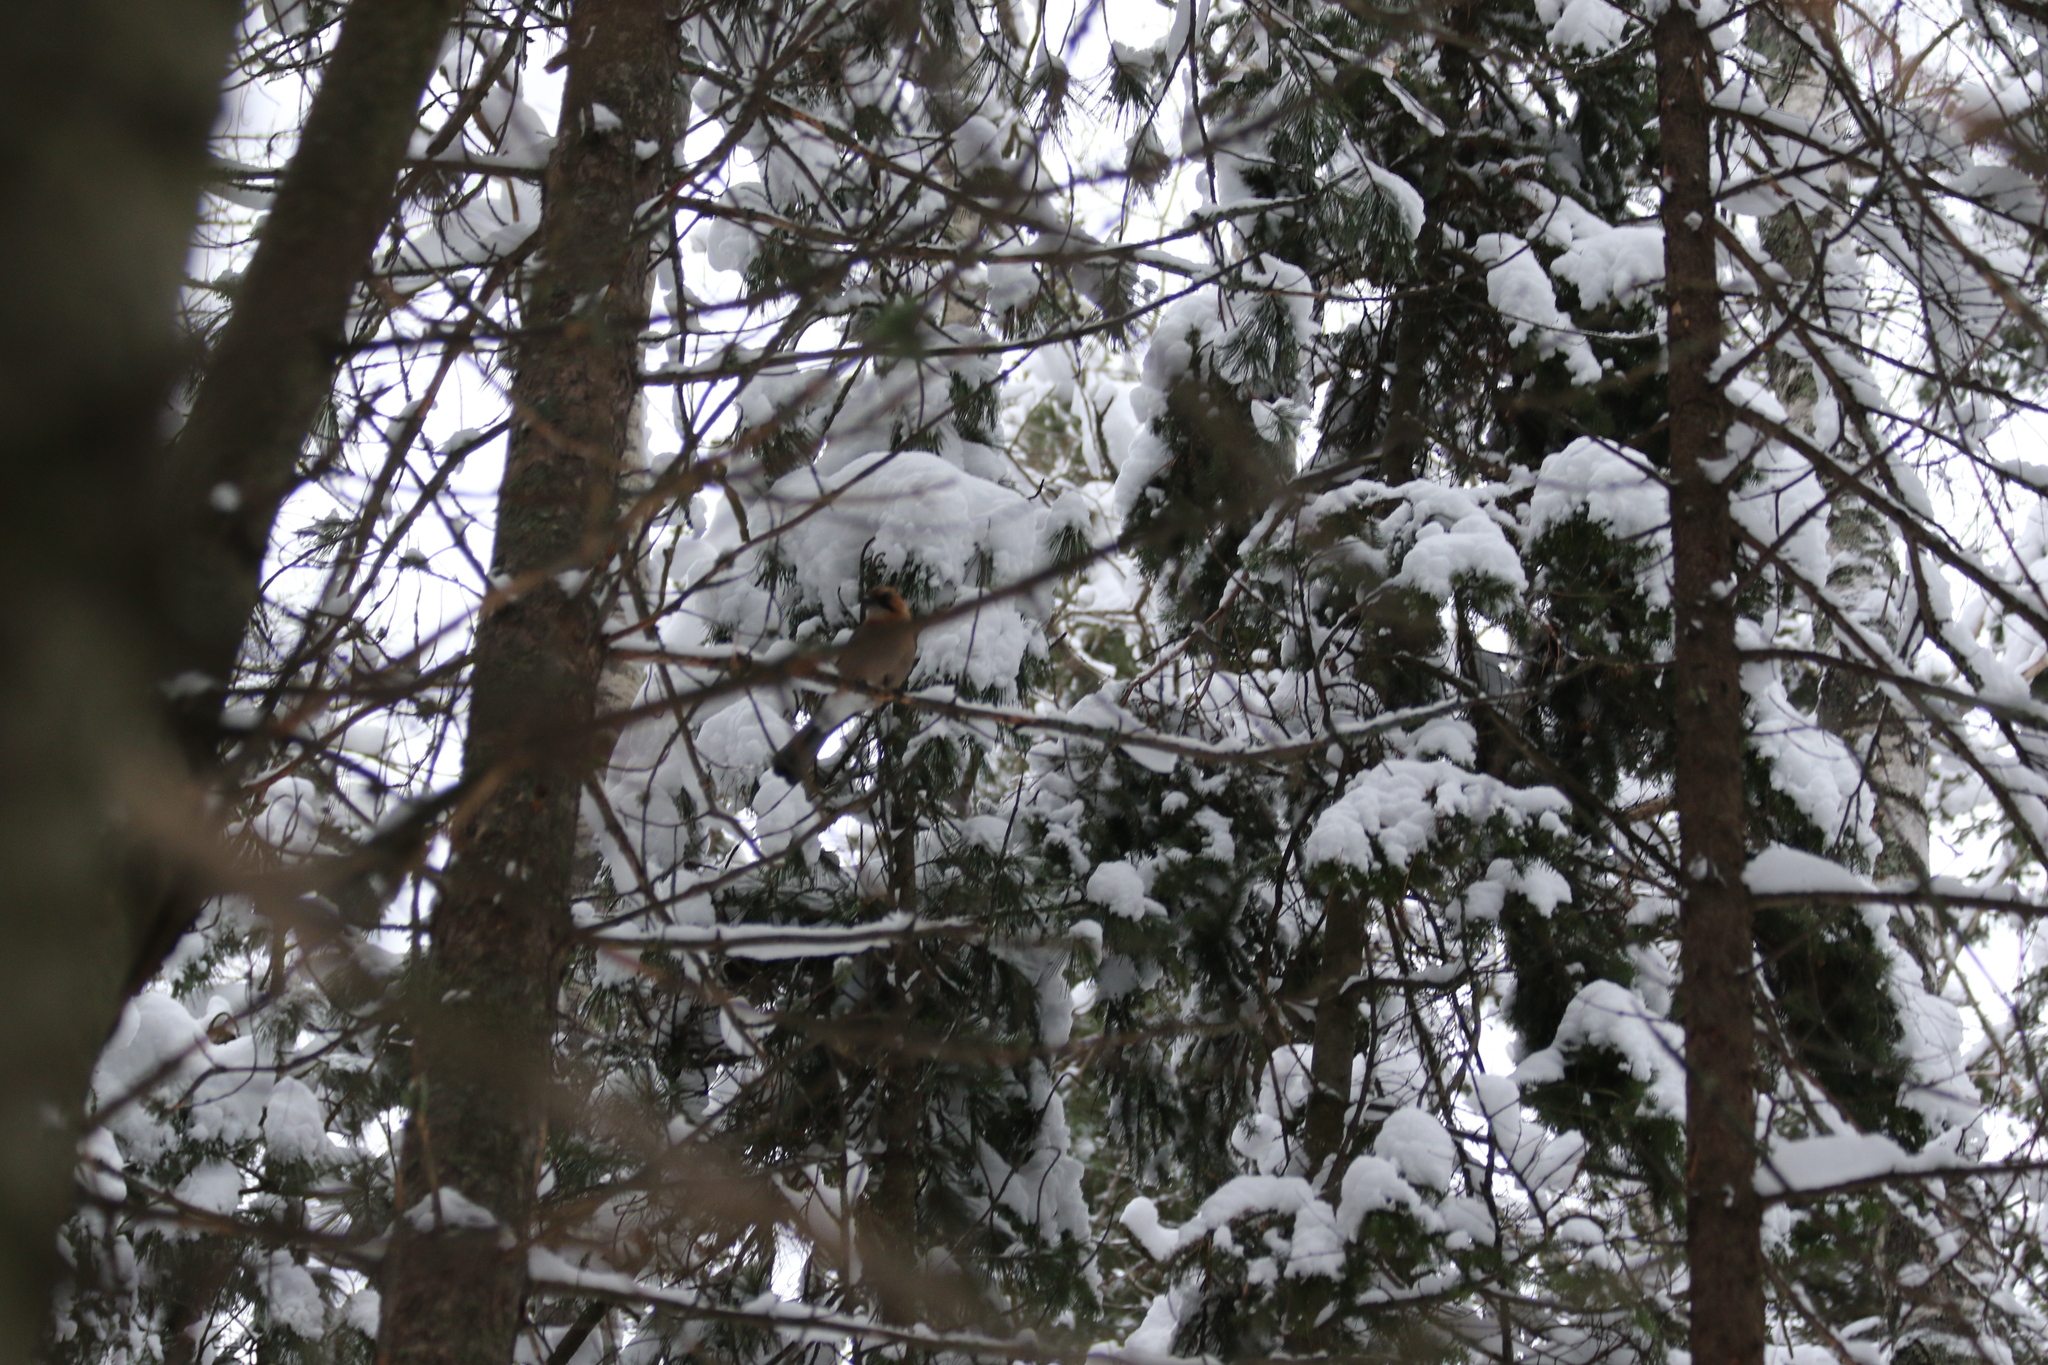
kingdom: Animalia
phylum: Chordata
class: Aves
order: Passeriformes
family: Corvidae
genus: Garrulus
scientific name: Garrulus glandarius
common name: Eurasian jay
